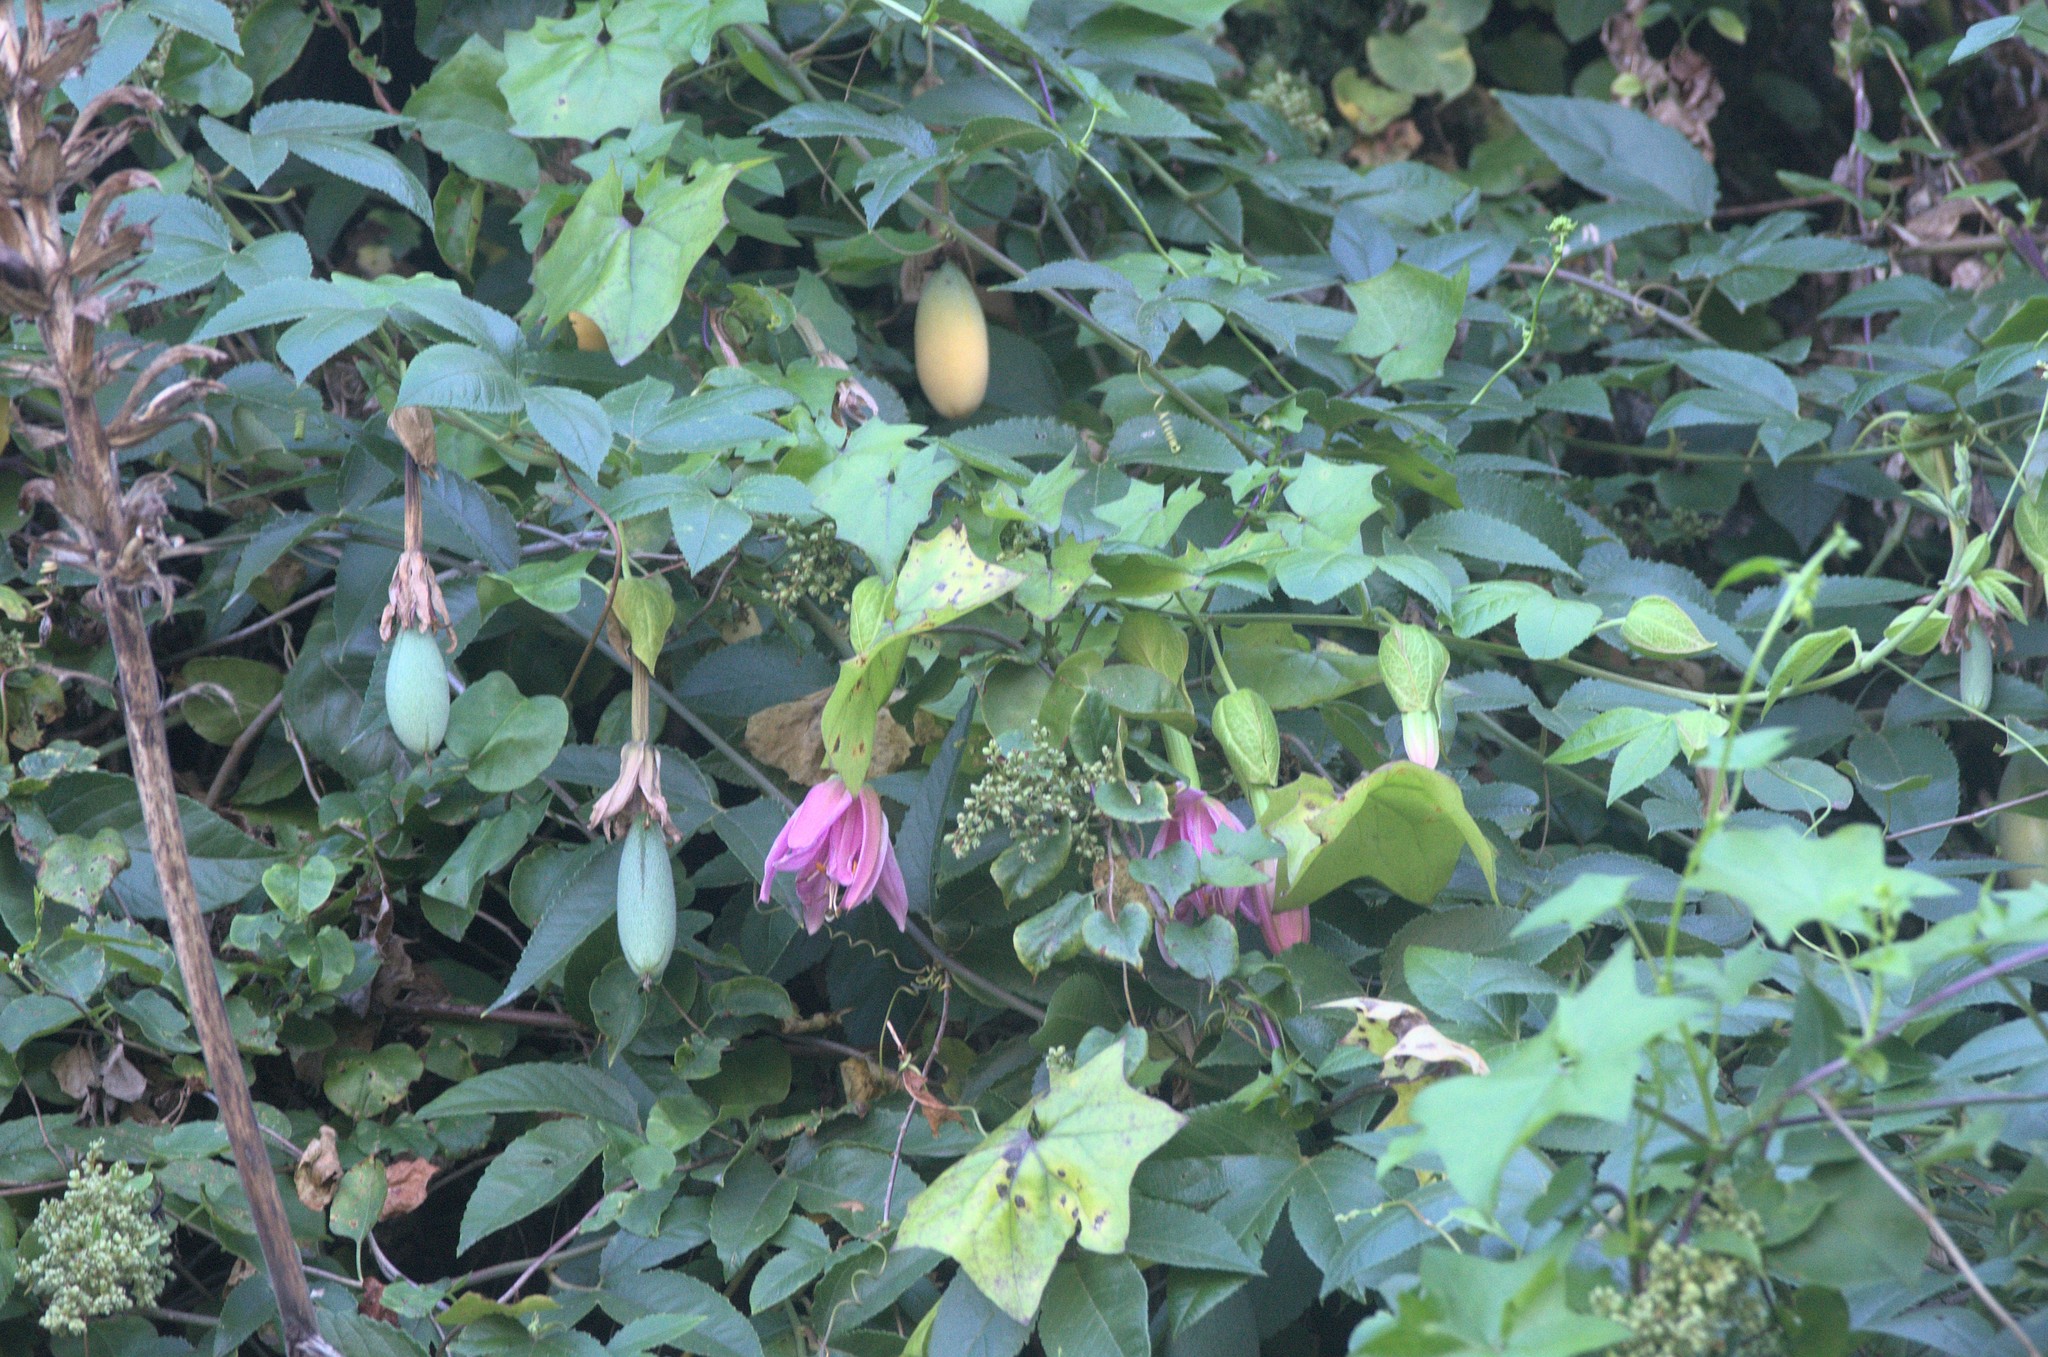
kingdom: Plantae
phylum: Tracheophyta
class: Magnoliopsida
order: Malpighiales
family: Passifloraceae
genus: Passiflora
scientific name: Passiflora tarminiana
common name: Banana poka
